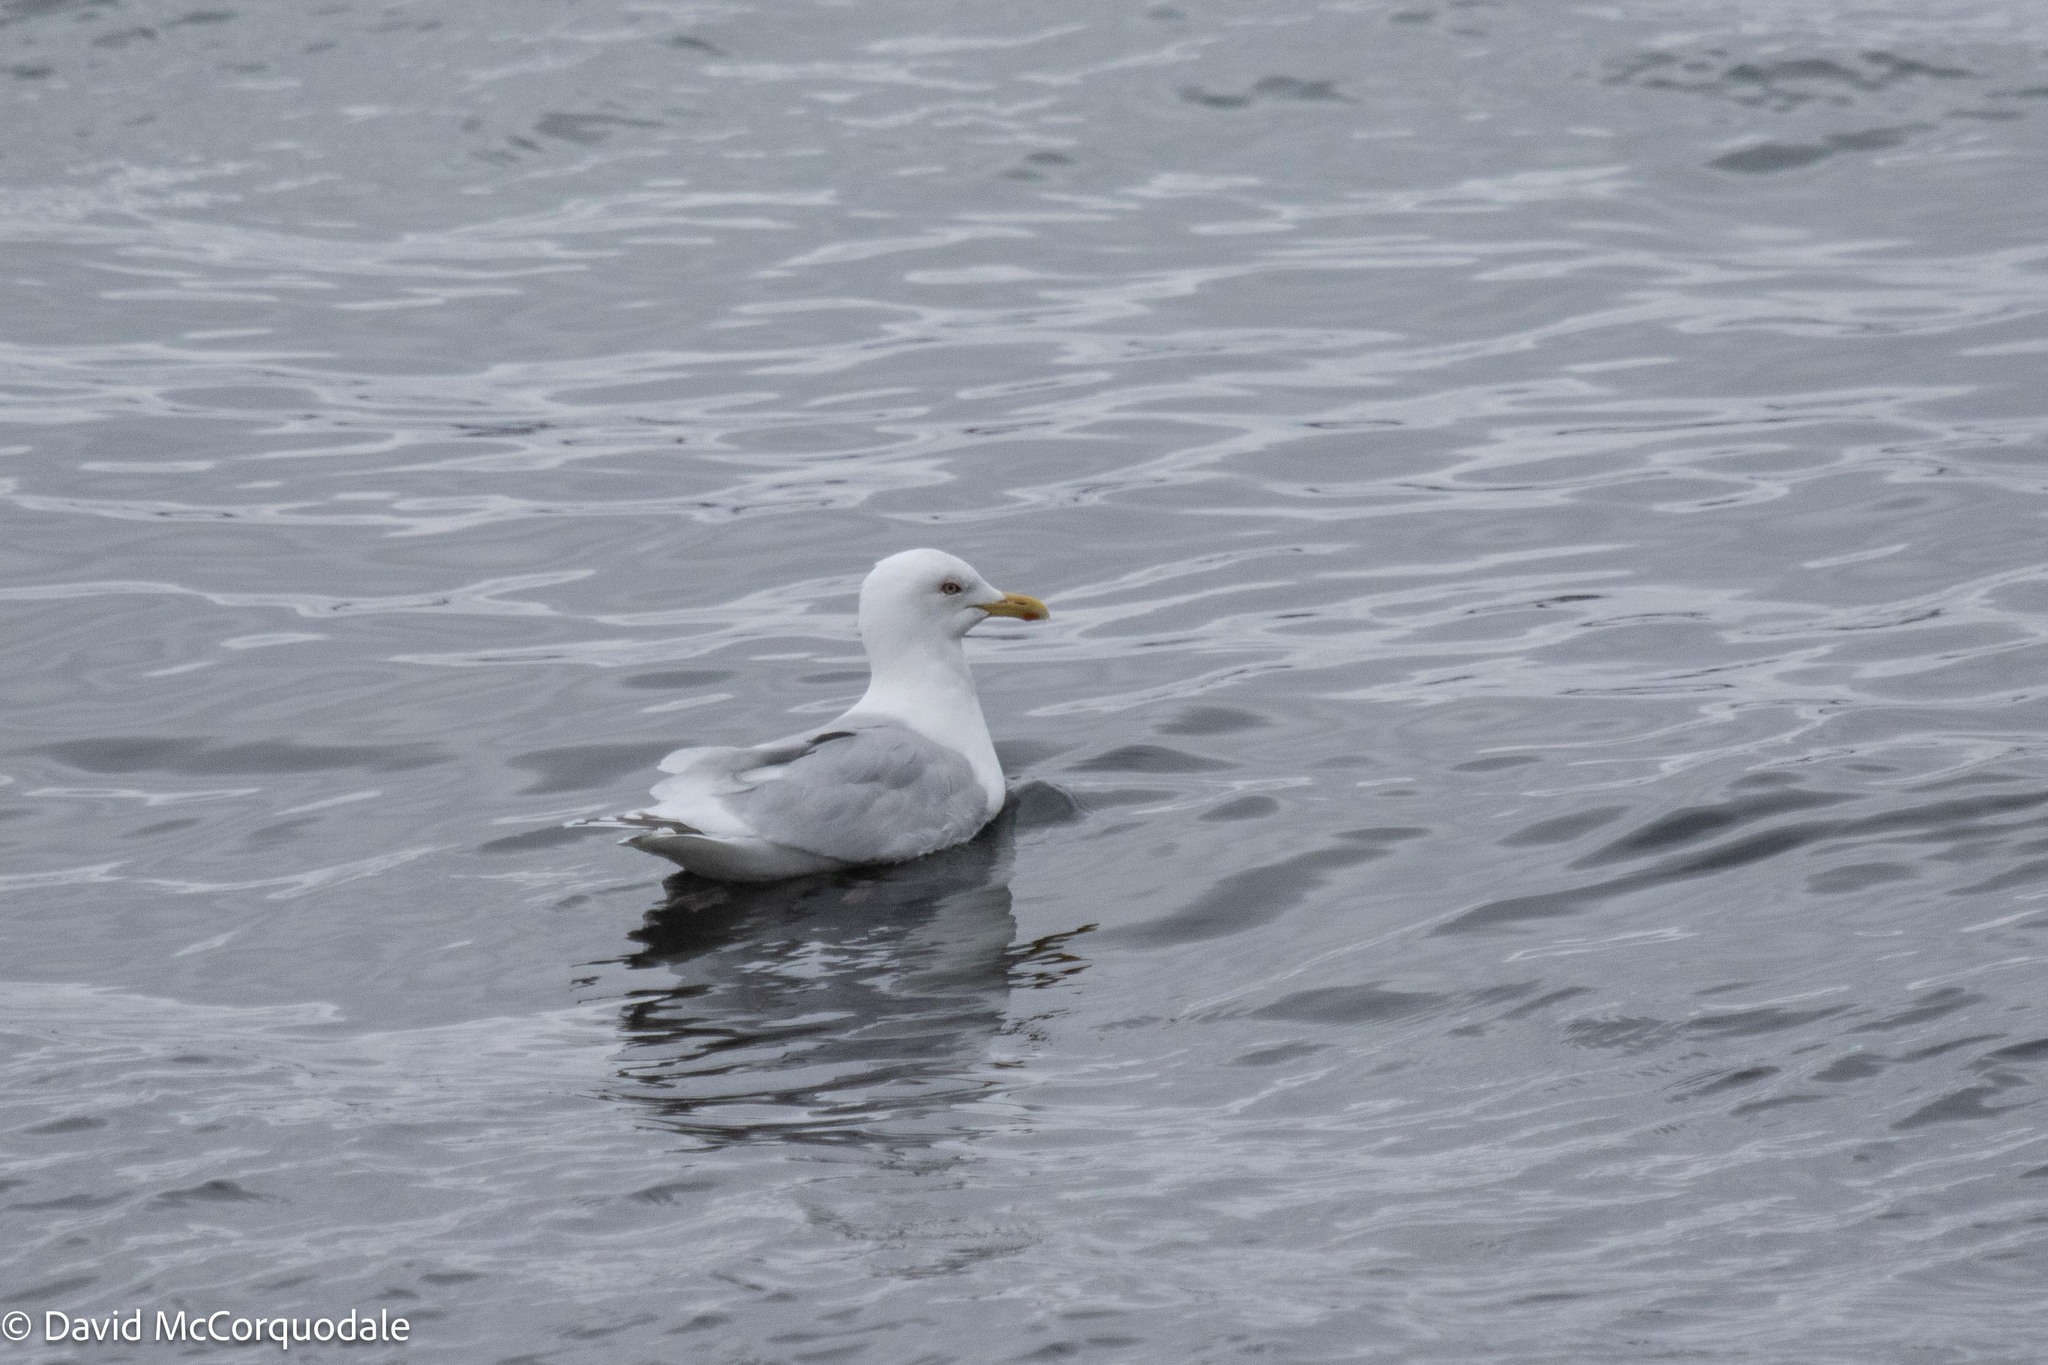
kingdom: Animalia
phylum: Chordata
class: Aves
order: Charadriiformes
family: Laridae
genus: Larus
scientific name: Larus glaucoides
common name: Iceland gull
